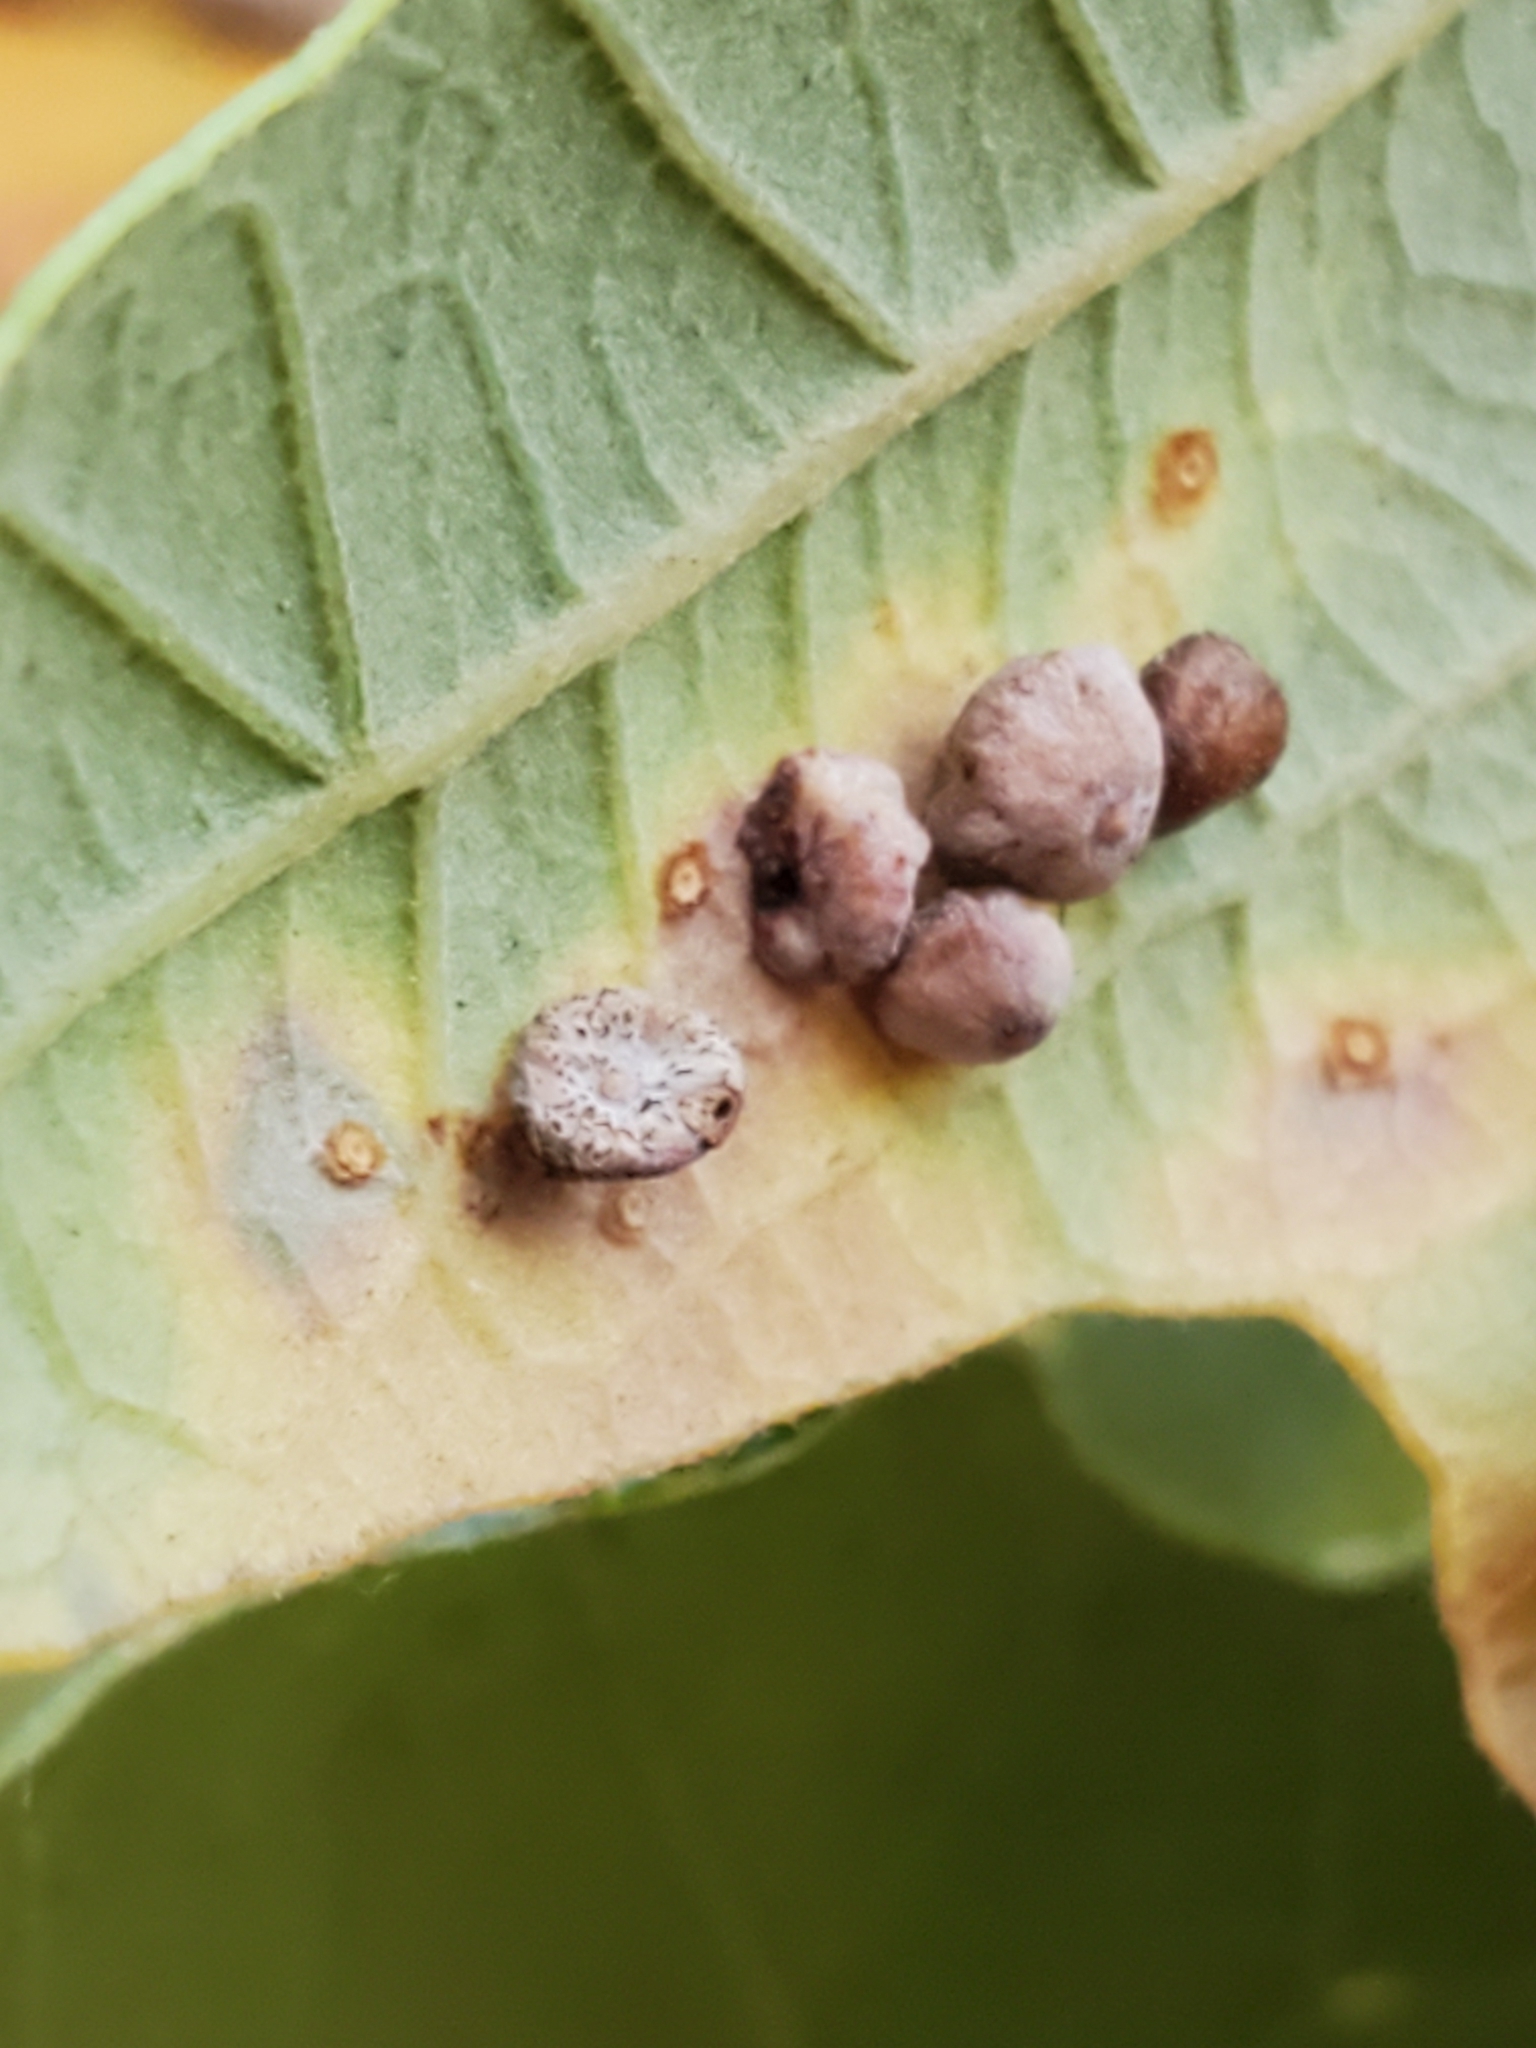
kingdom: Animalia
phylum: Arthropoda
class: Insecta
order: Hymenoptera
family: Cynipidae
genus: Phylloteras
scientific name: Phylloteras poculum
